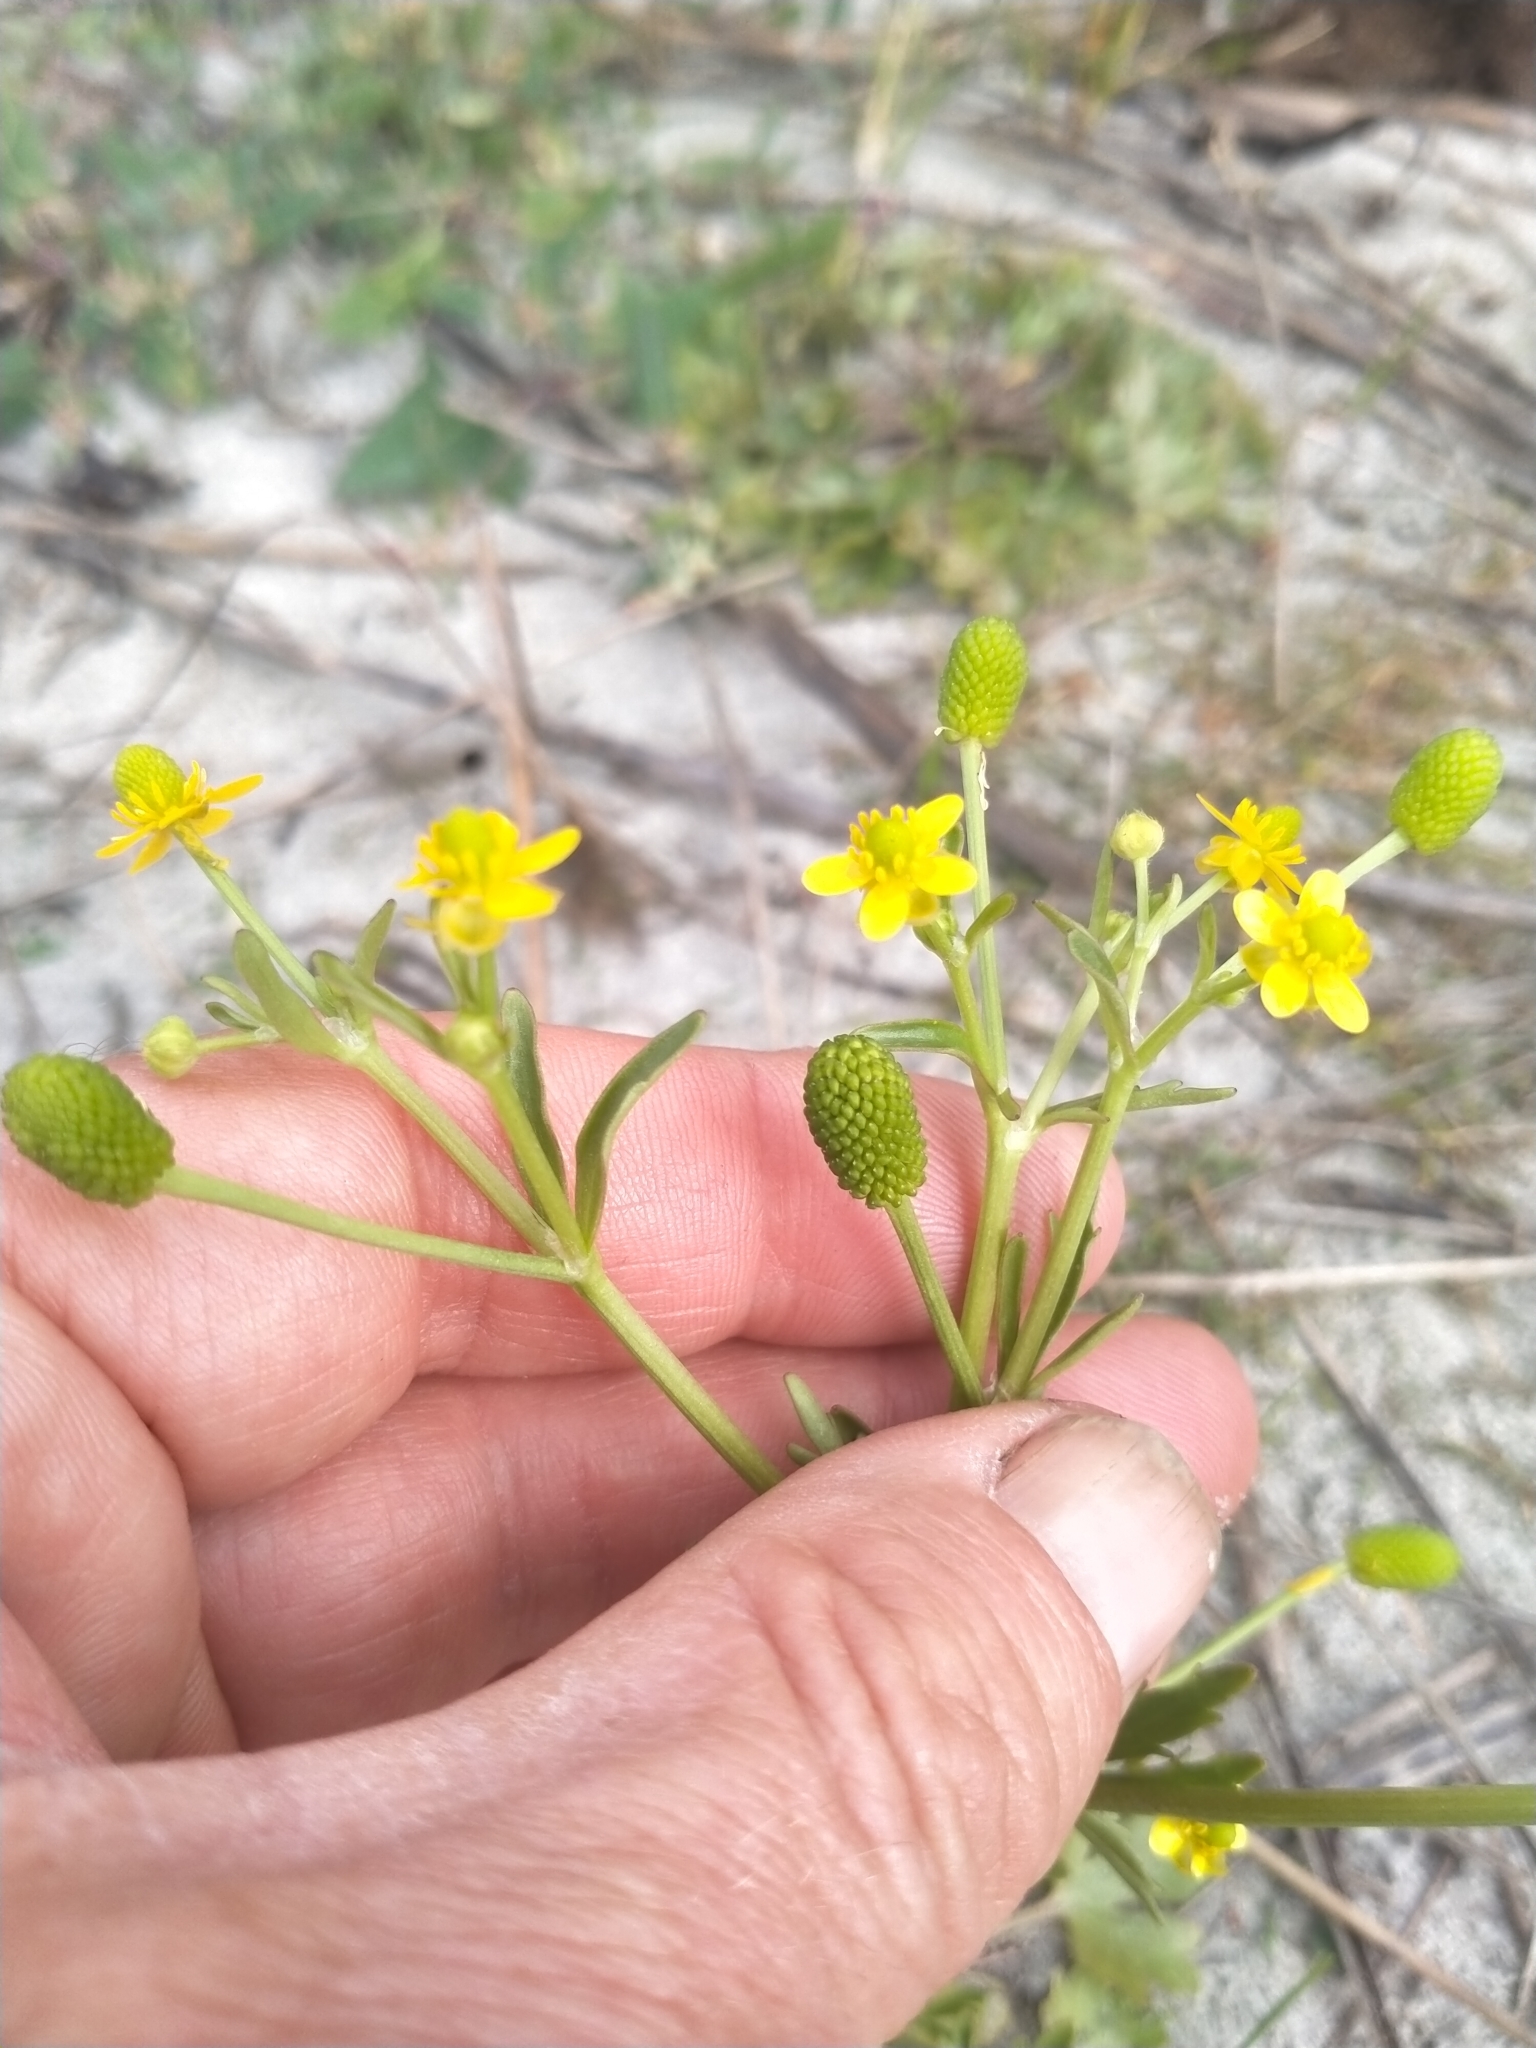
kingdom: Plantae
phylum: Tracheophyta
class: Magnoliopsida
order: Ranunculales
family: Ranunculaceae
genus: Ranunculus
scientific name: Ranunculus sceleratus
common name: Celery-leaved buttercup
